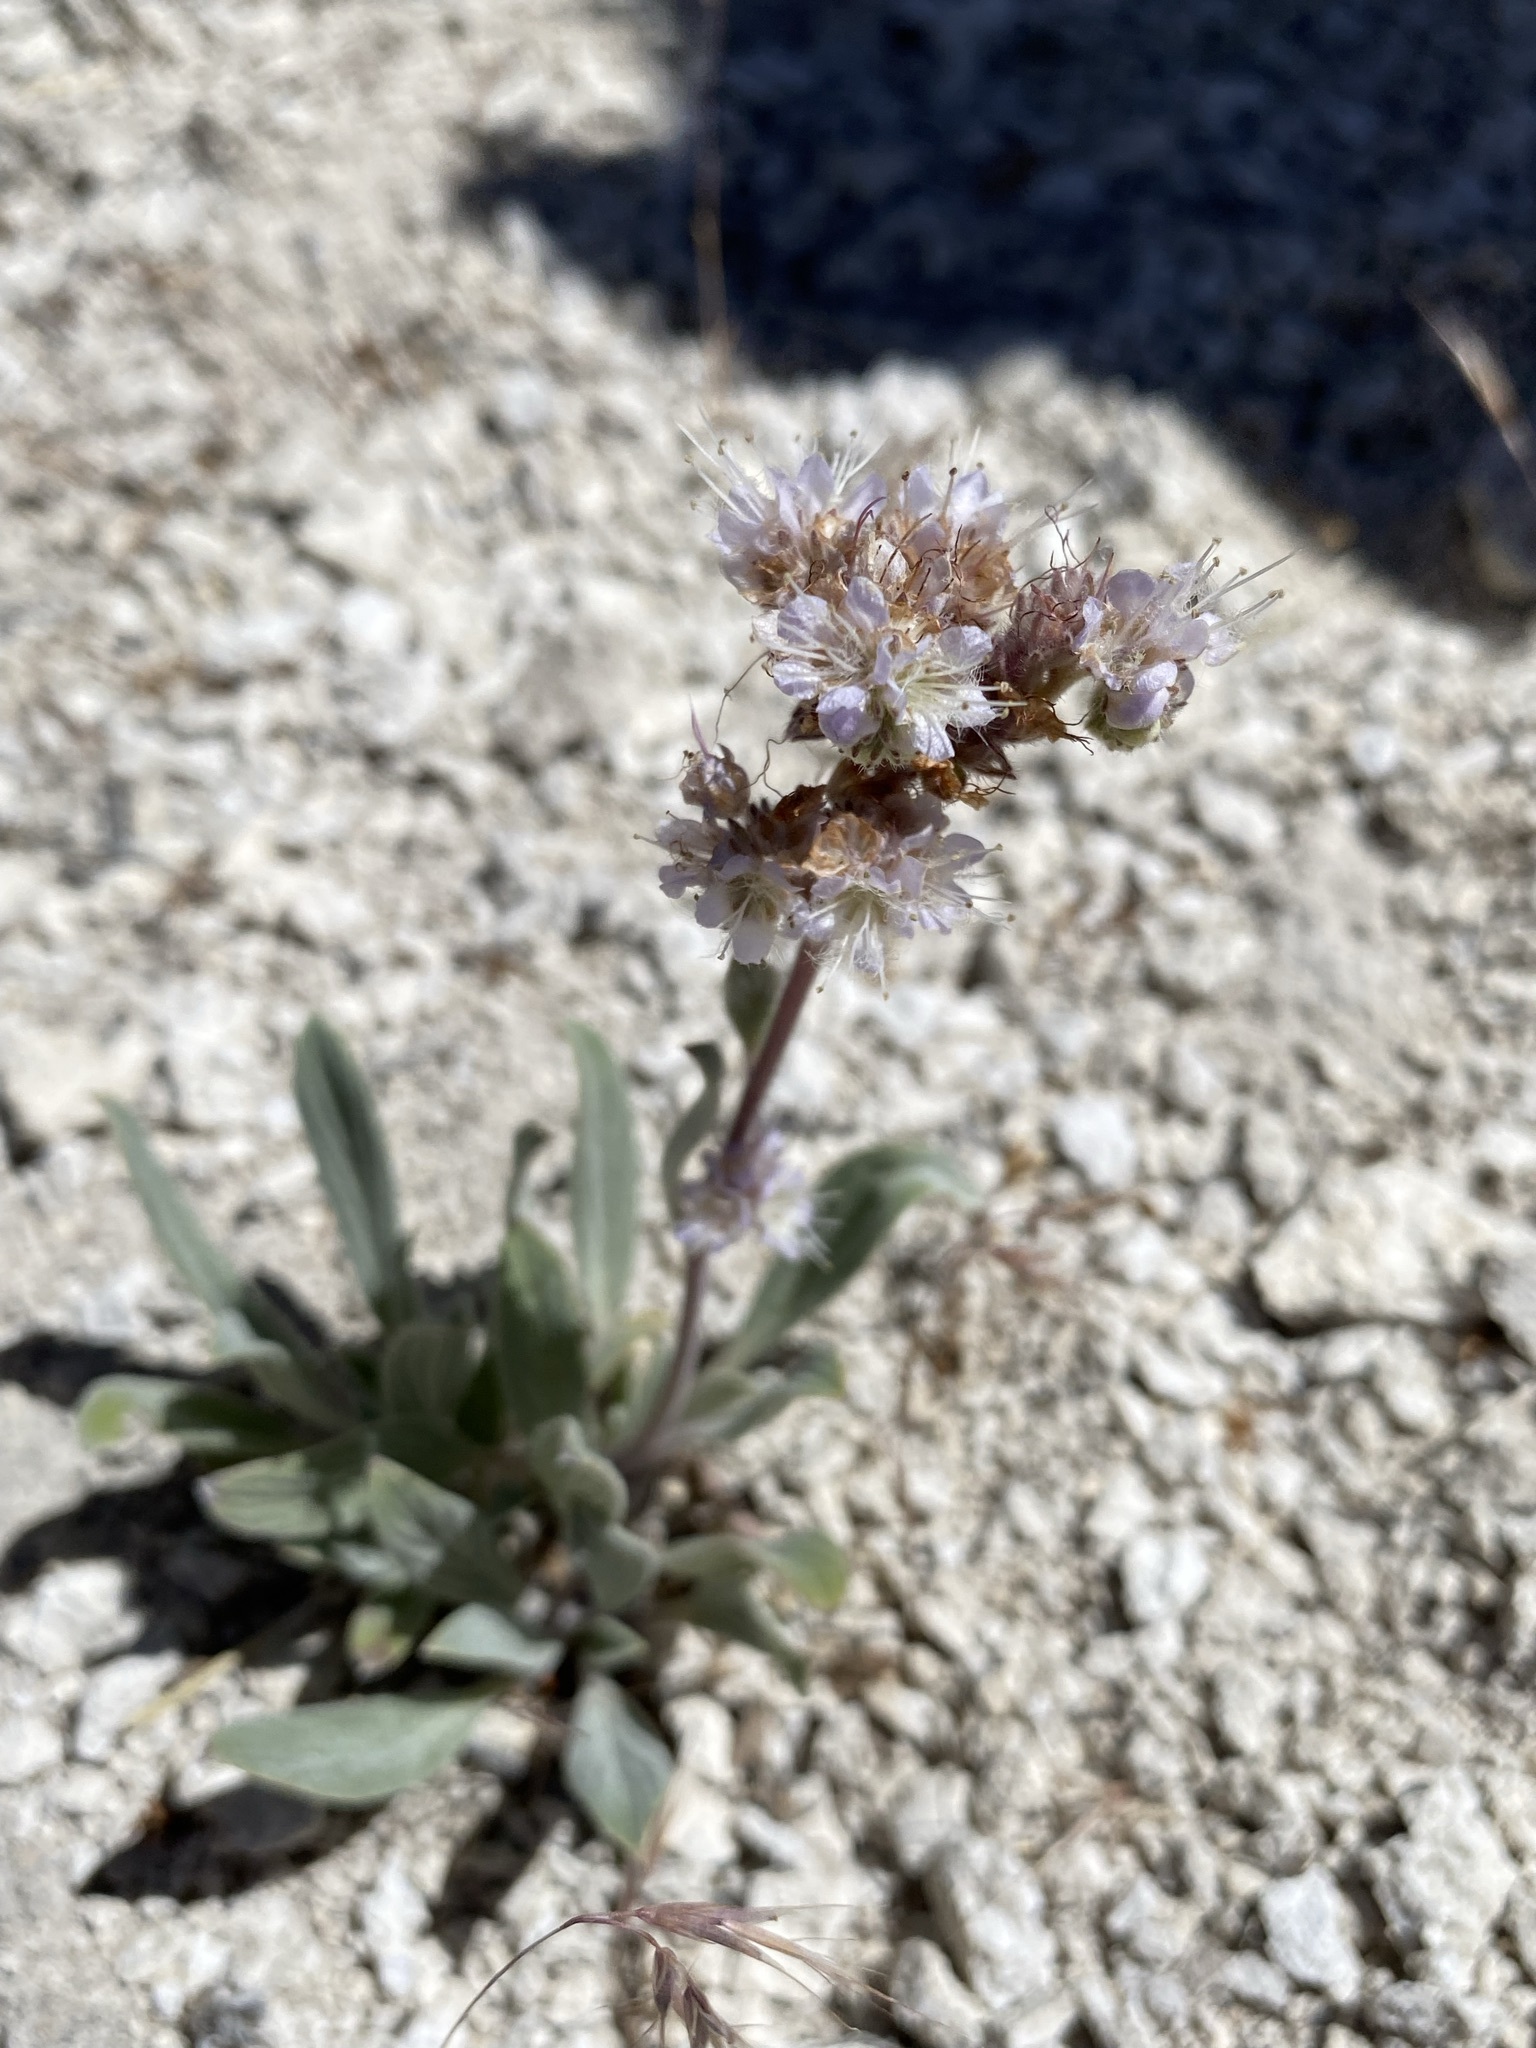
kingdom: Plantae
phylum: Tracheophyta
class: Magnoliopsida
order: Boraginales
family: Hydrophyllaceae
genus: Phacelia
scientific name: Phacelia hastata
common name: Silver-leaved phacelia
